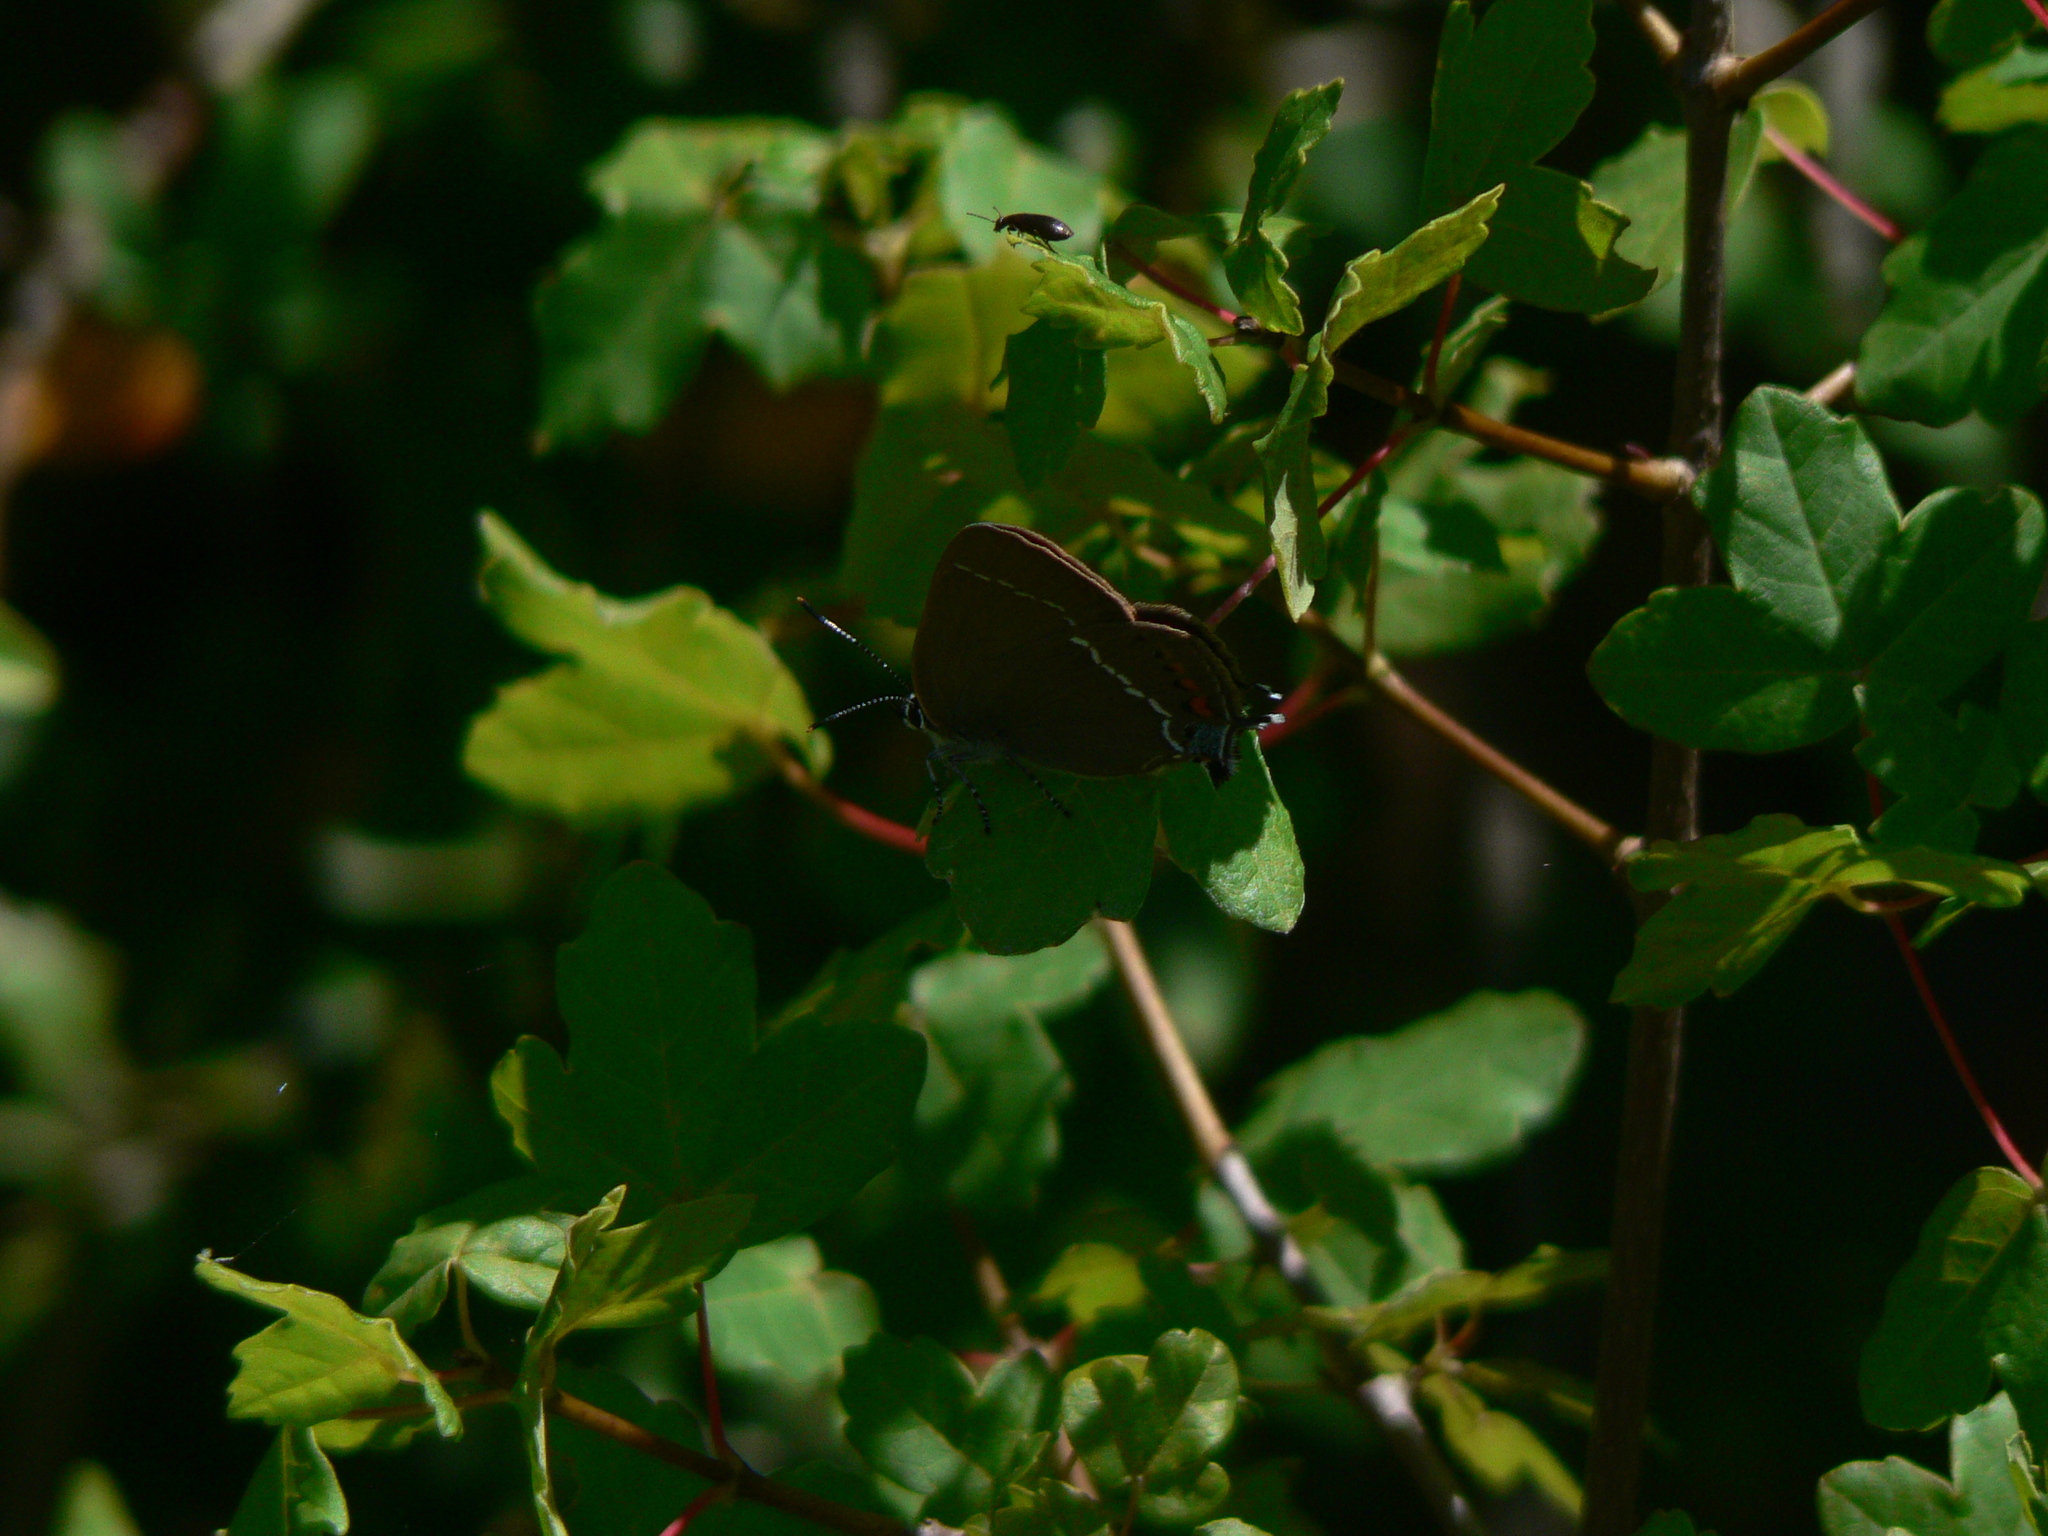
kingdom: Animalia
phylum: Arthropoda
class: Insecta
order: Lepidoptera
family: Lycaenidae
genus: Tuttiola
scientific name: Tuttiola spini
